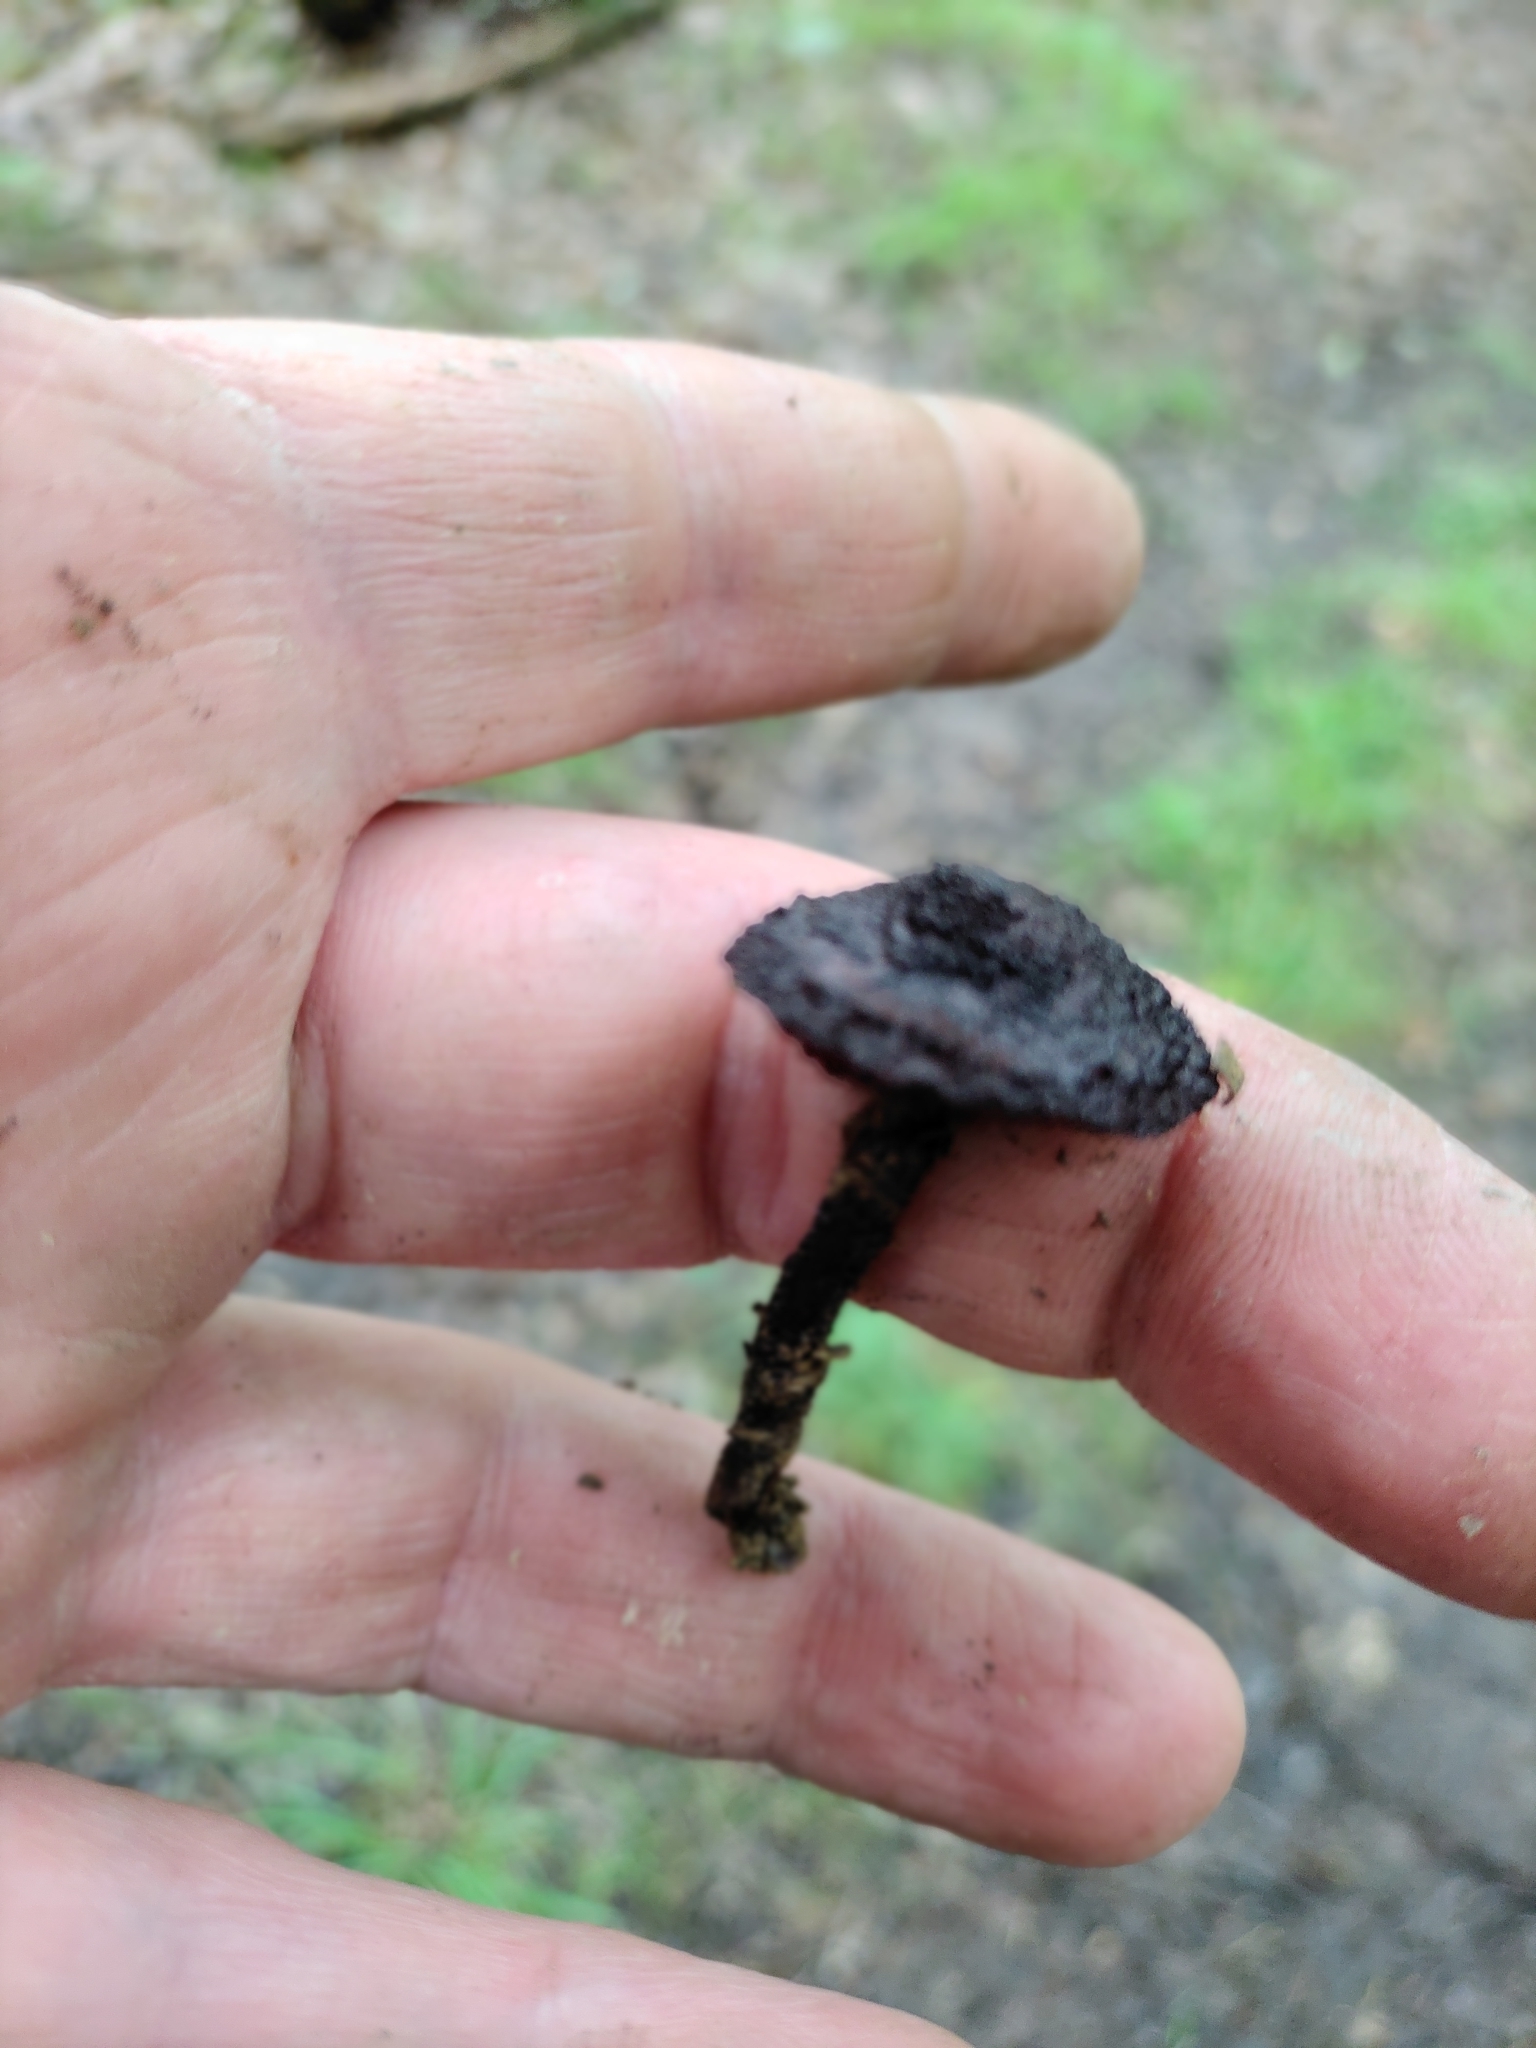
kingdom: Fungi
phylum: Basidiomycota
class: Agaricomycetes
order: Agaricales
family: Inocybaceae
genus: Inocybe
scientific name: Inocybe tahquamenonensis
